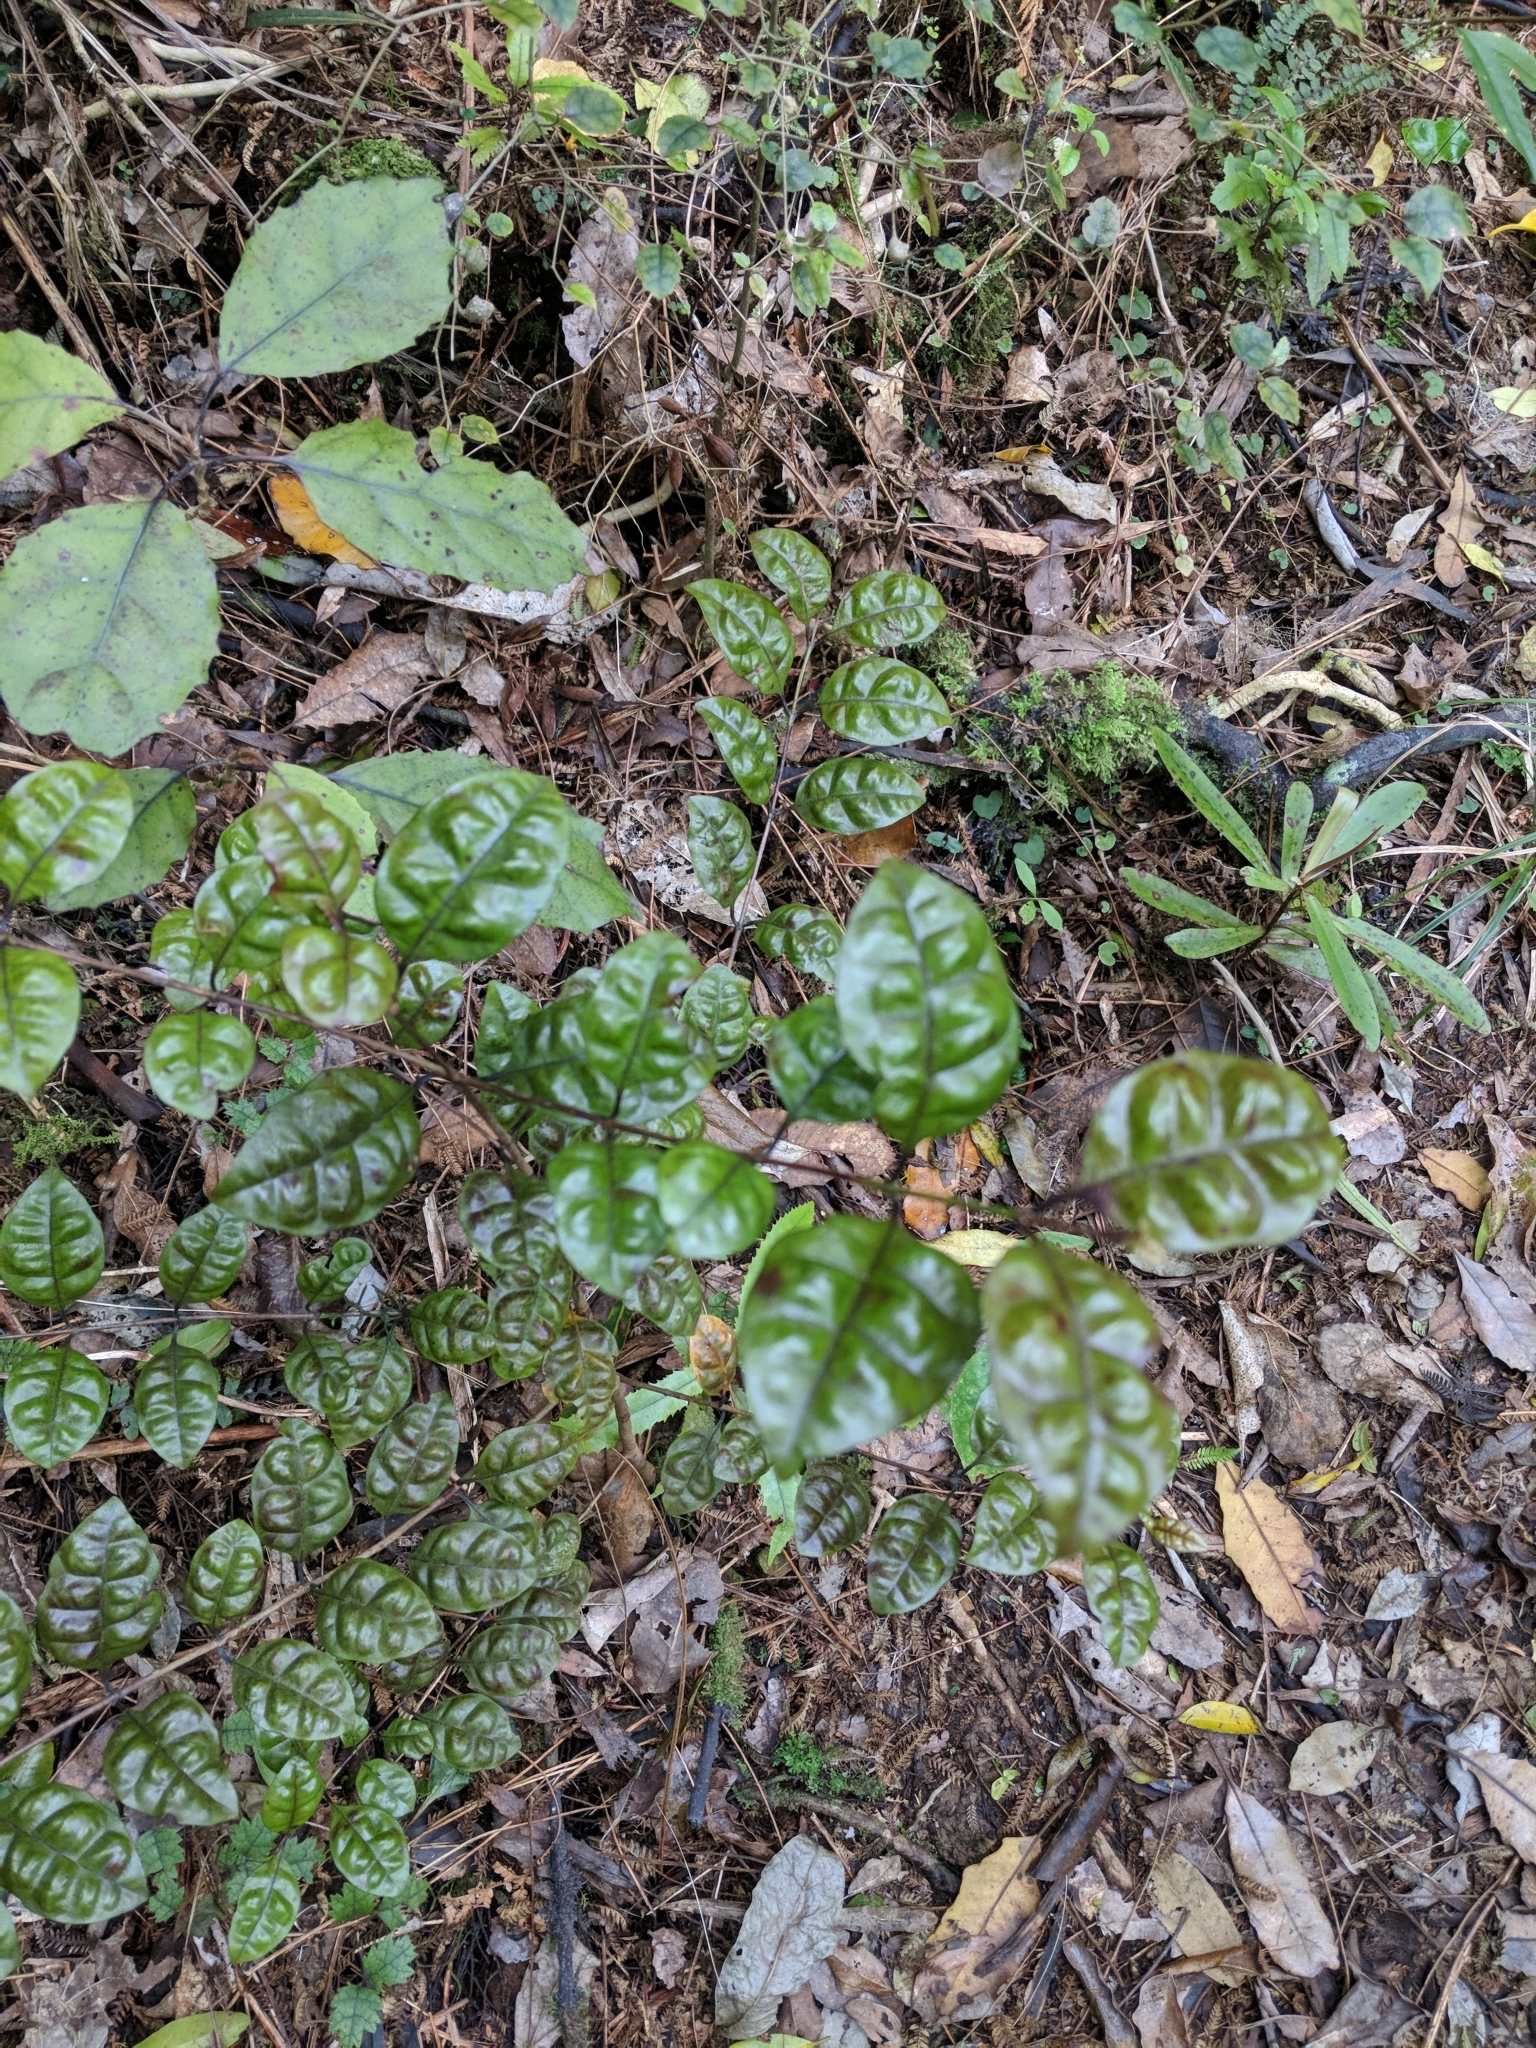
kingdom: Plantae
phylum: Tracheophyta
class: Magnoliopsida
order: Myrtales
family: Myrtaceae
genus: Lophomyrtus
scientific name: Lophomyrtus bullata
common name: Rama rama
